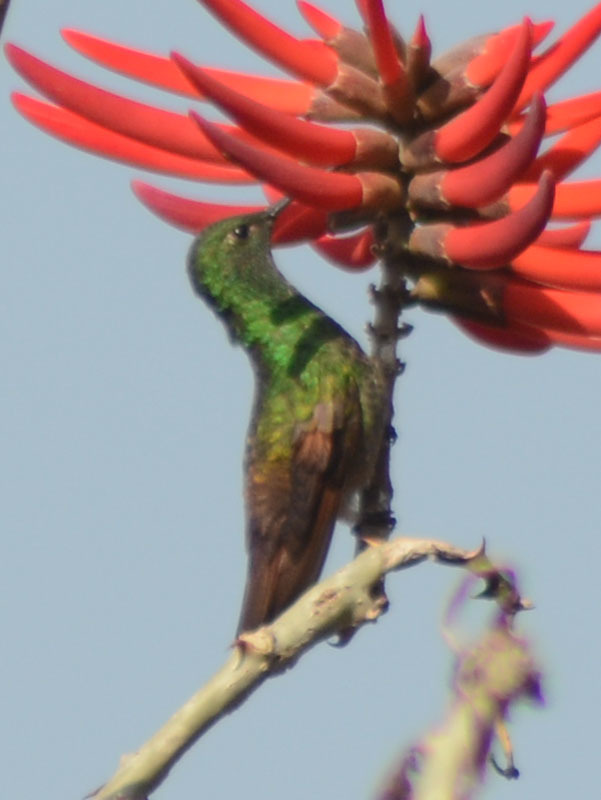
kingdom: Animalia
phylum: Chordata
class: Aves
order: Apodiformes
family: Trochilidae
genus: Saucerottia
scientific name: Saucerottia beryllina
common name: Berylline hummingbird
